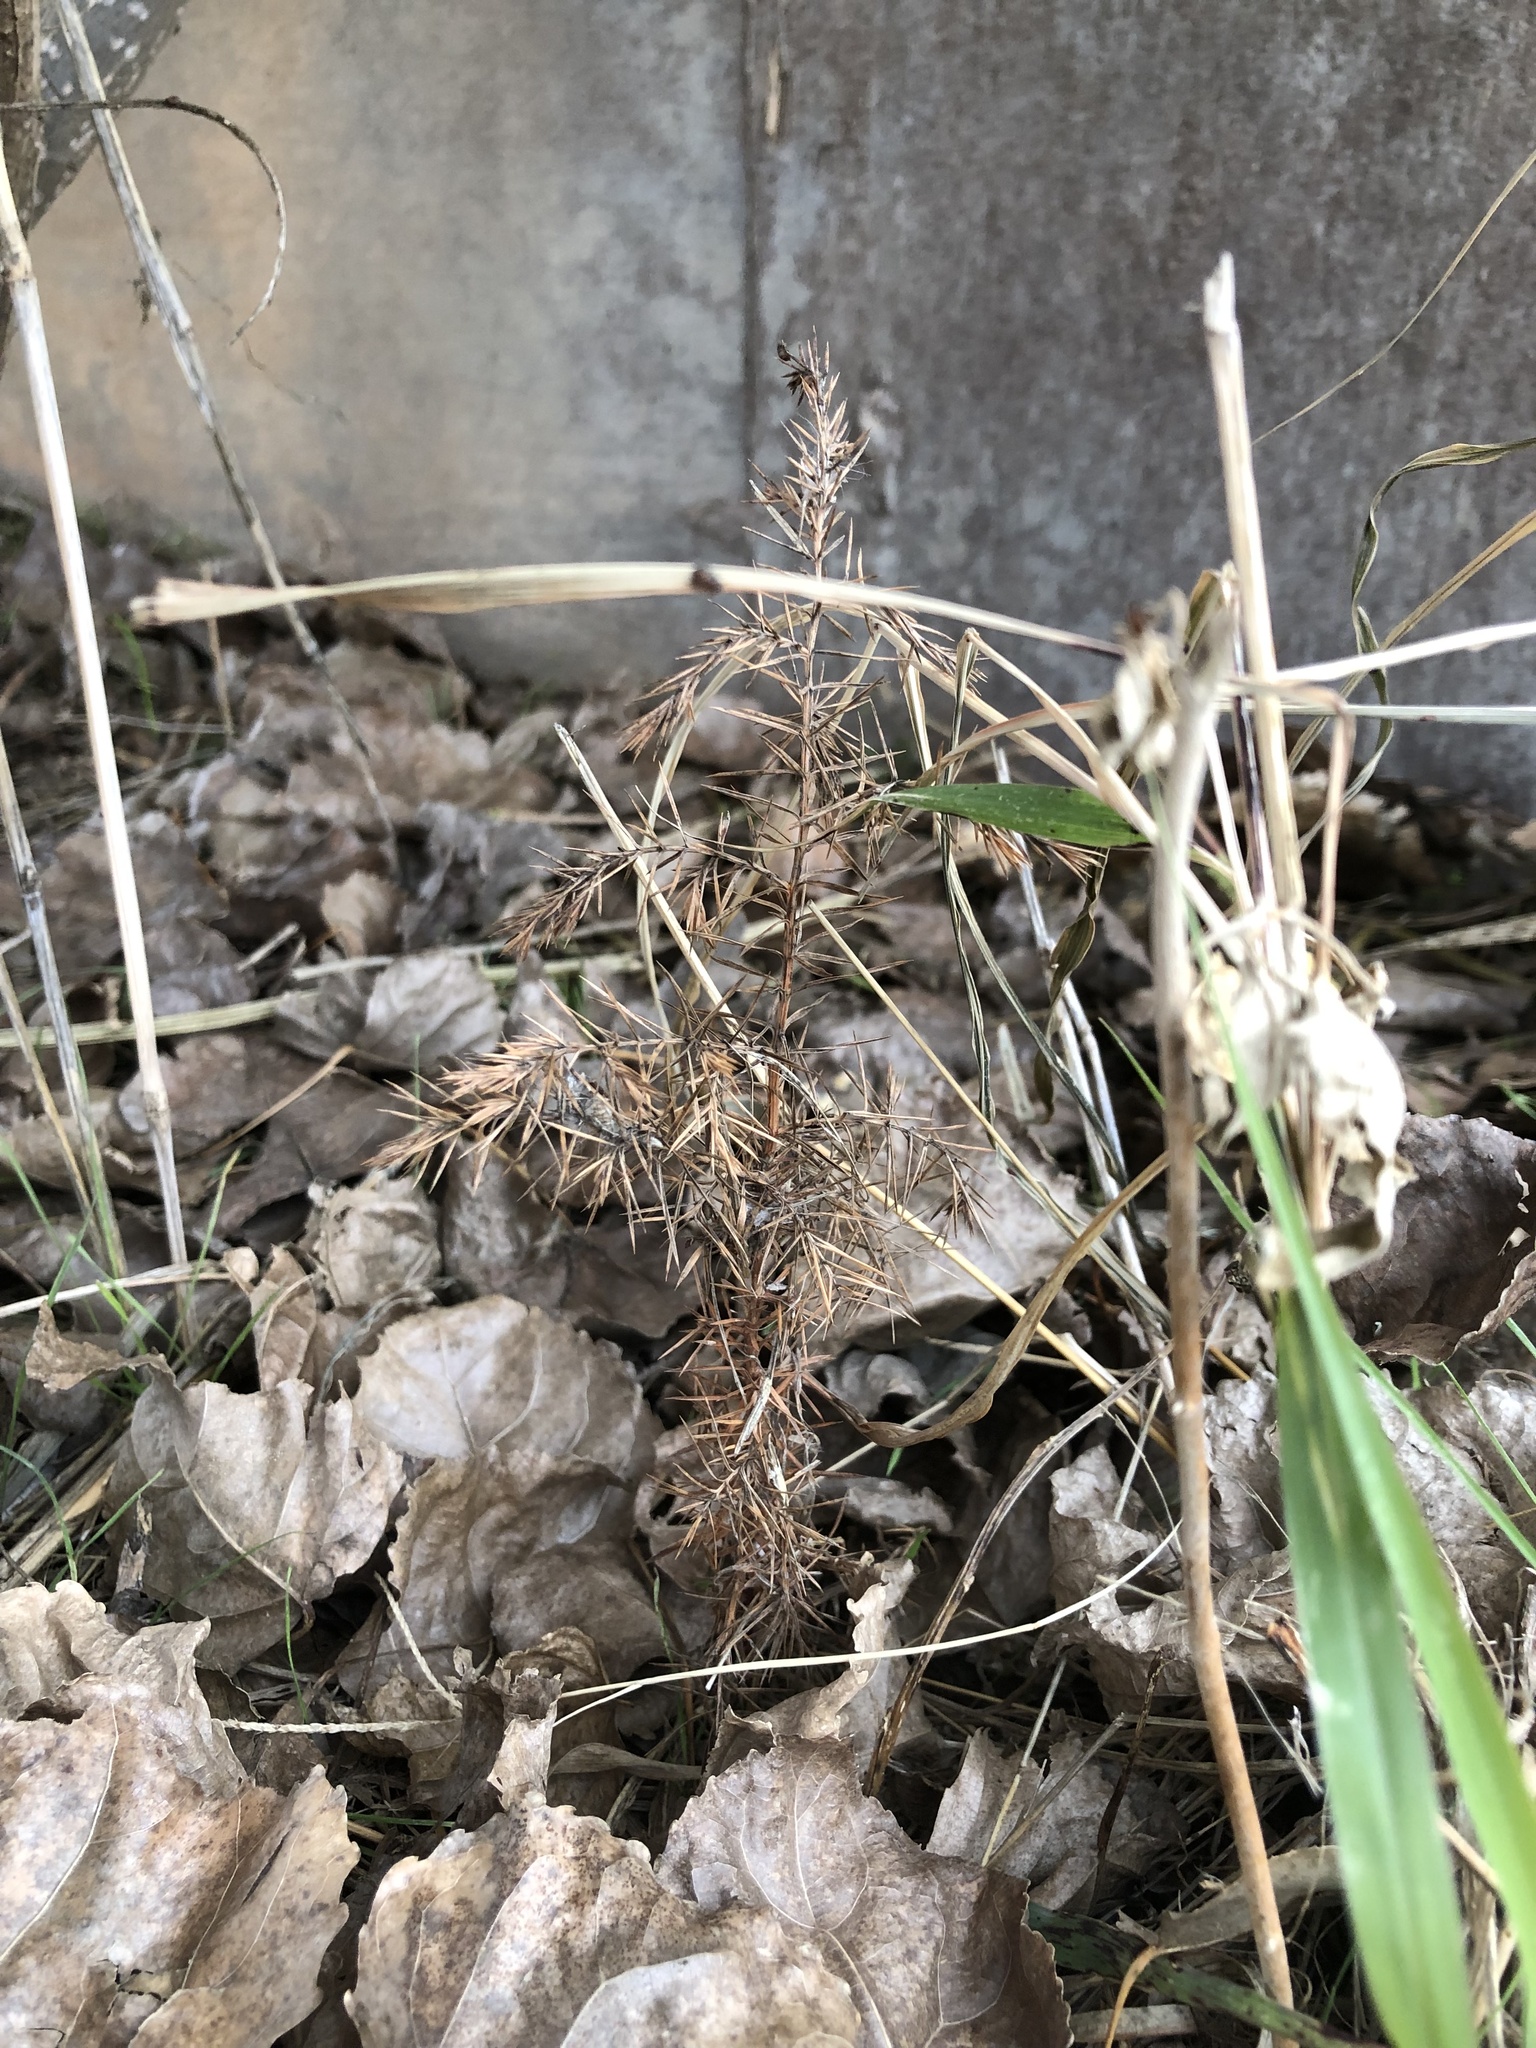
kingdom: Plantae
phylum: Tracheophyta
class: Pinopsida
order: Pinales
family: Cupressaceae
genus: Juniperus
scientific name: Juniperus virginiana
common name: Red juniper
